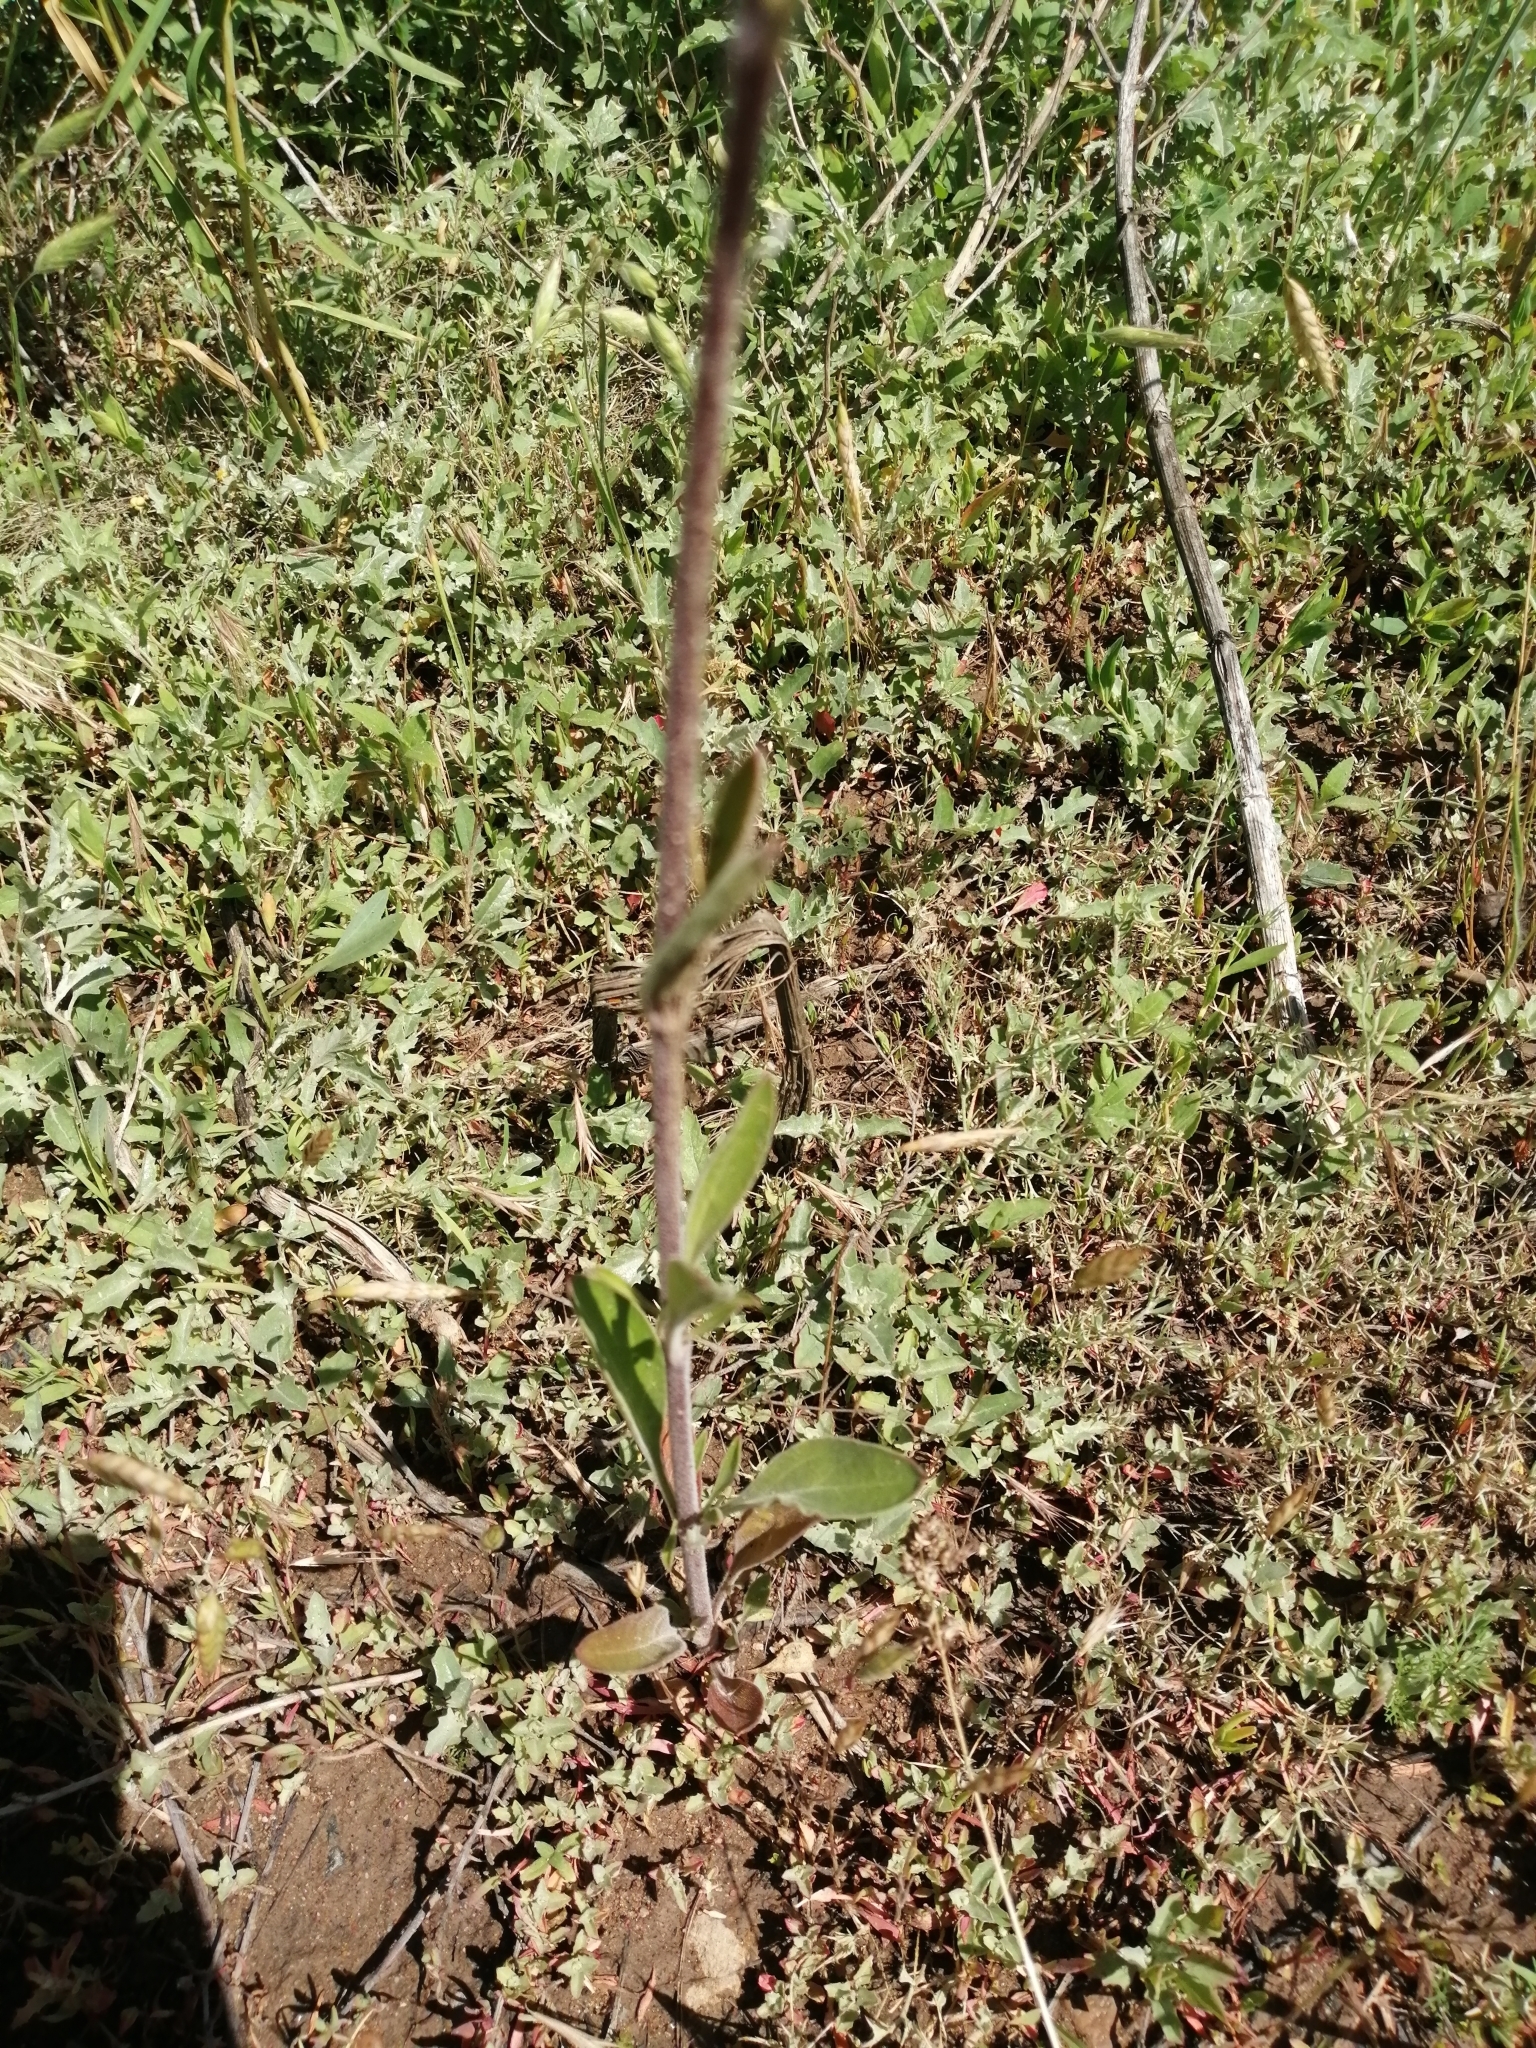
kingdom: Plantae
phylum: Tracheophyta
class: Magnoliopsida
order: Caryophyllales
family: Caryophyllaceae
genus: Silene
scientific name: Silene wolgensis
